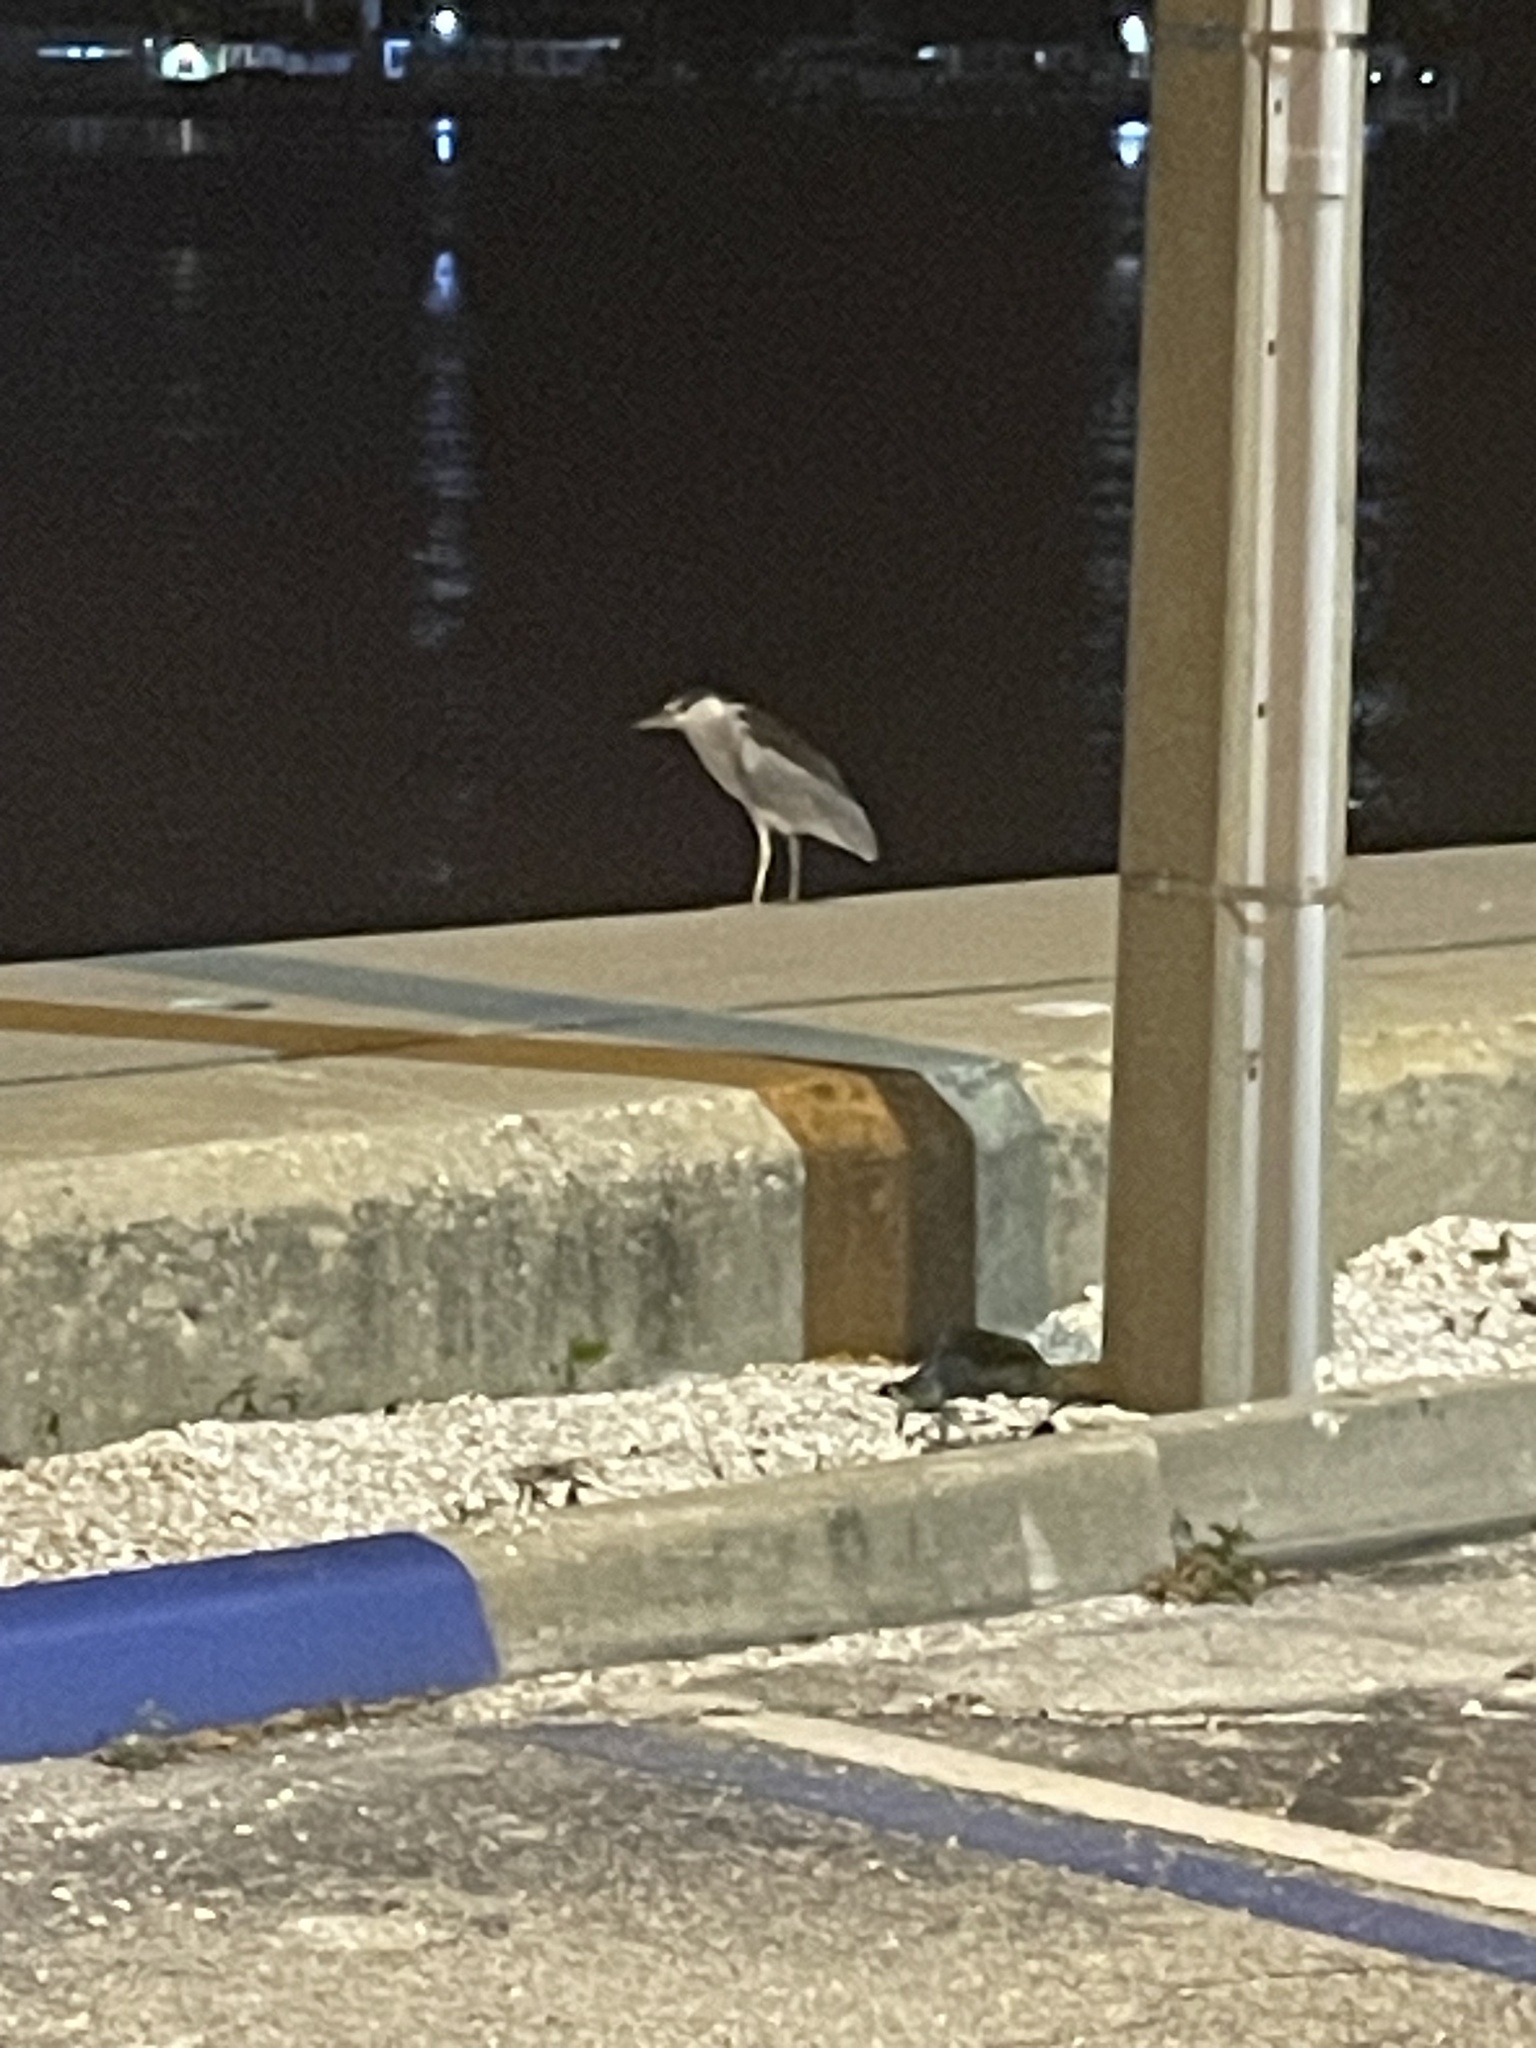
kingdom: Animalia
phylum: Chordata
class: Aves
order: Pelecaniformes
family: Ardeidae
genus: Nycticorax
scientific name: Nycticorax nycticorax
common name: Black-crowned night heron
